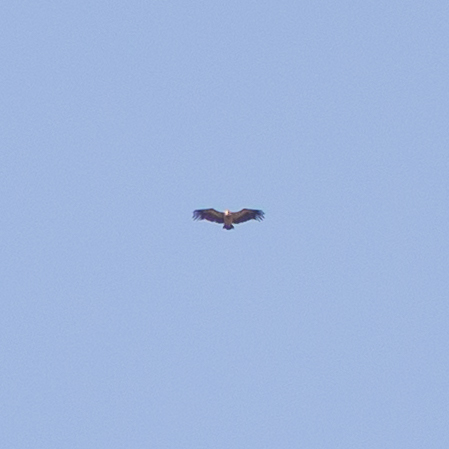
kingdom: Animalia
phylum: Chordata
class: Aves
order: Accipitriformes
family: Accipitridae
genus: Gyps
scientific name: Gyps fulvus
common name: Griffon vulture
